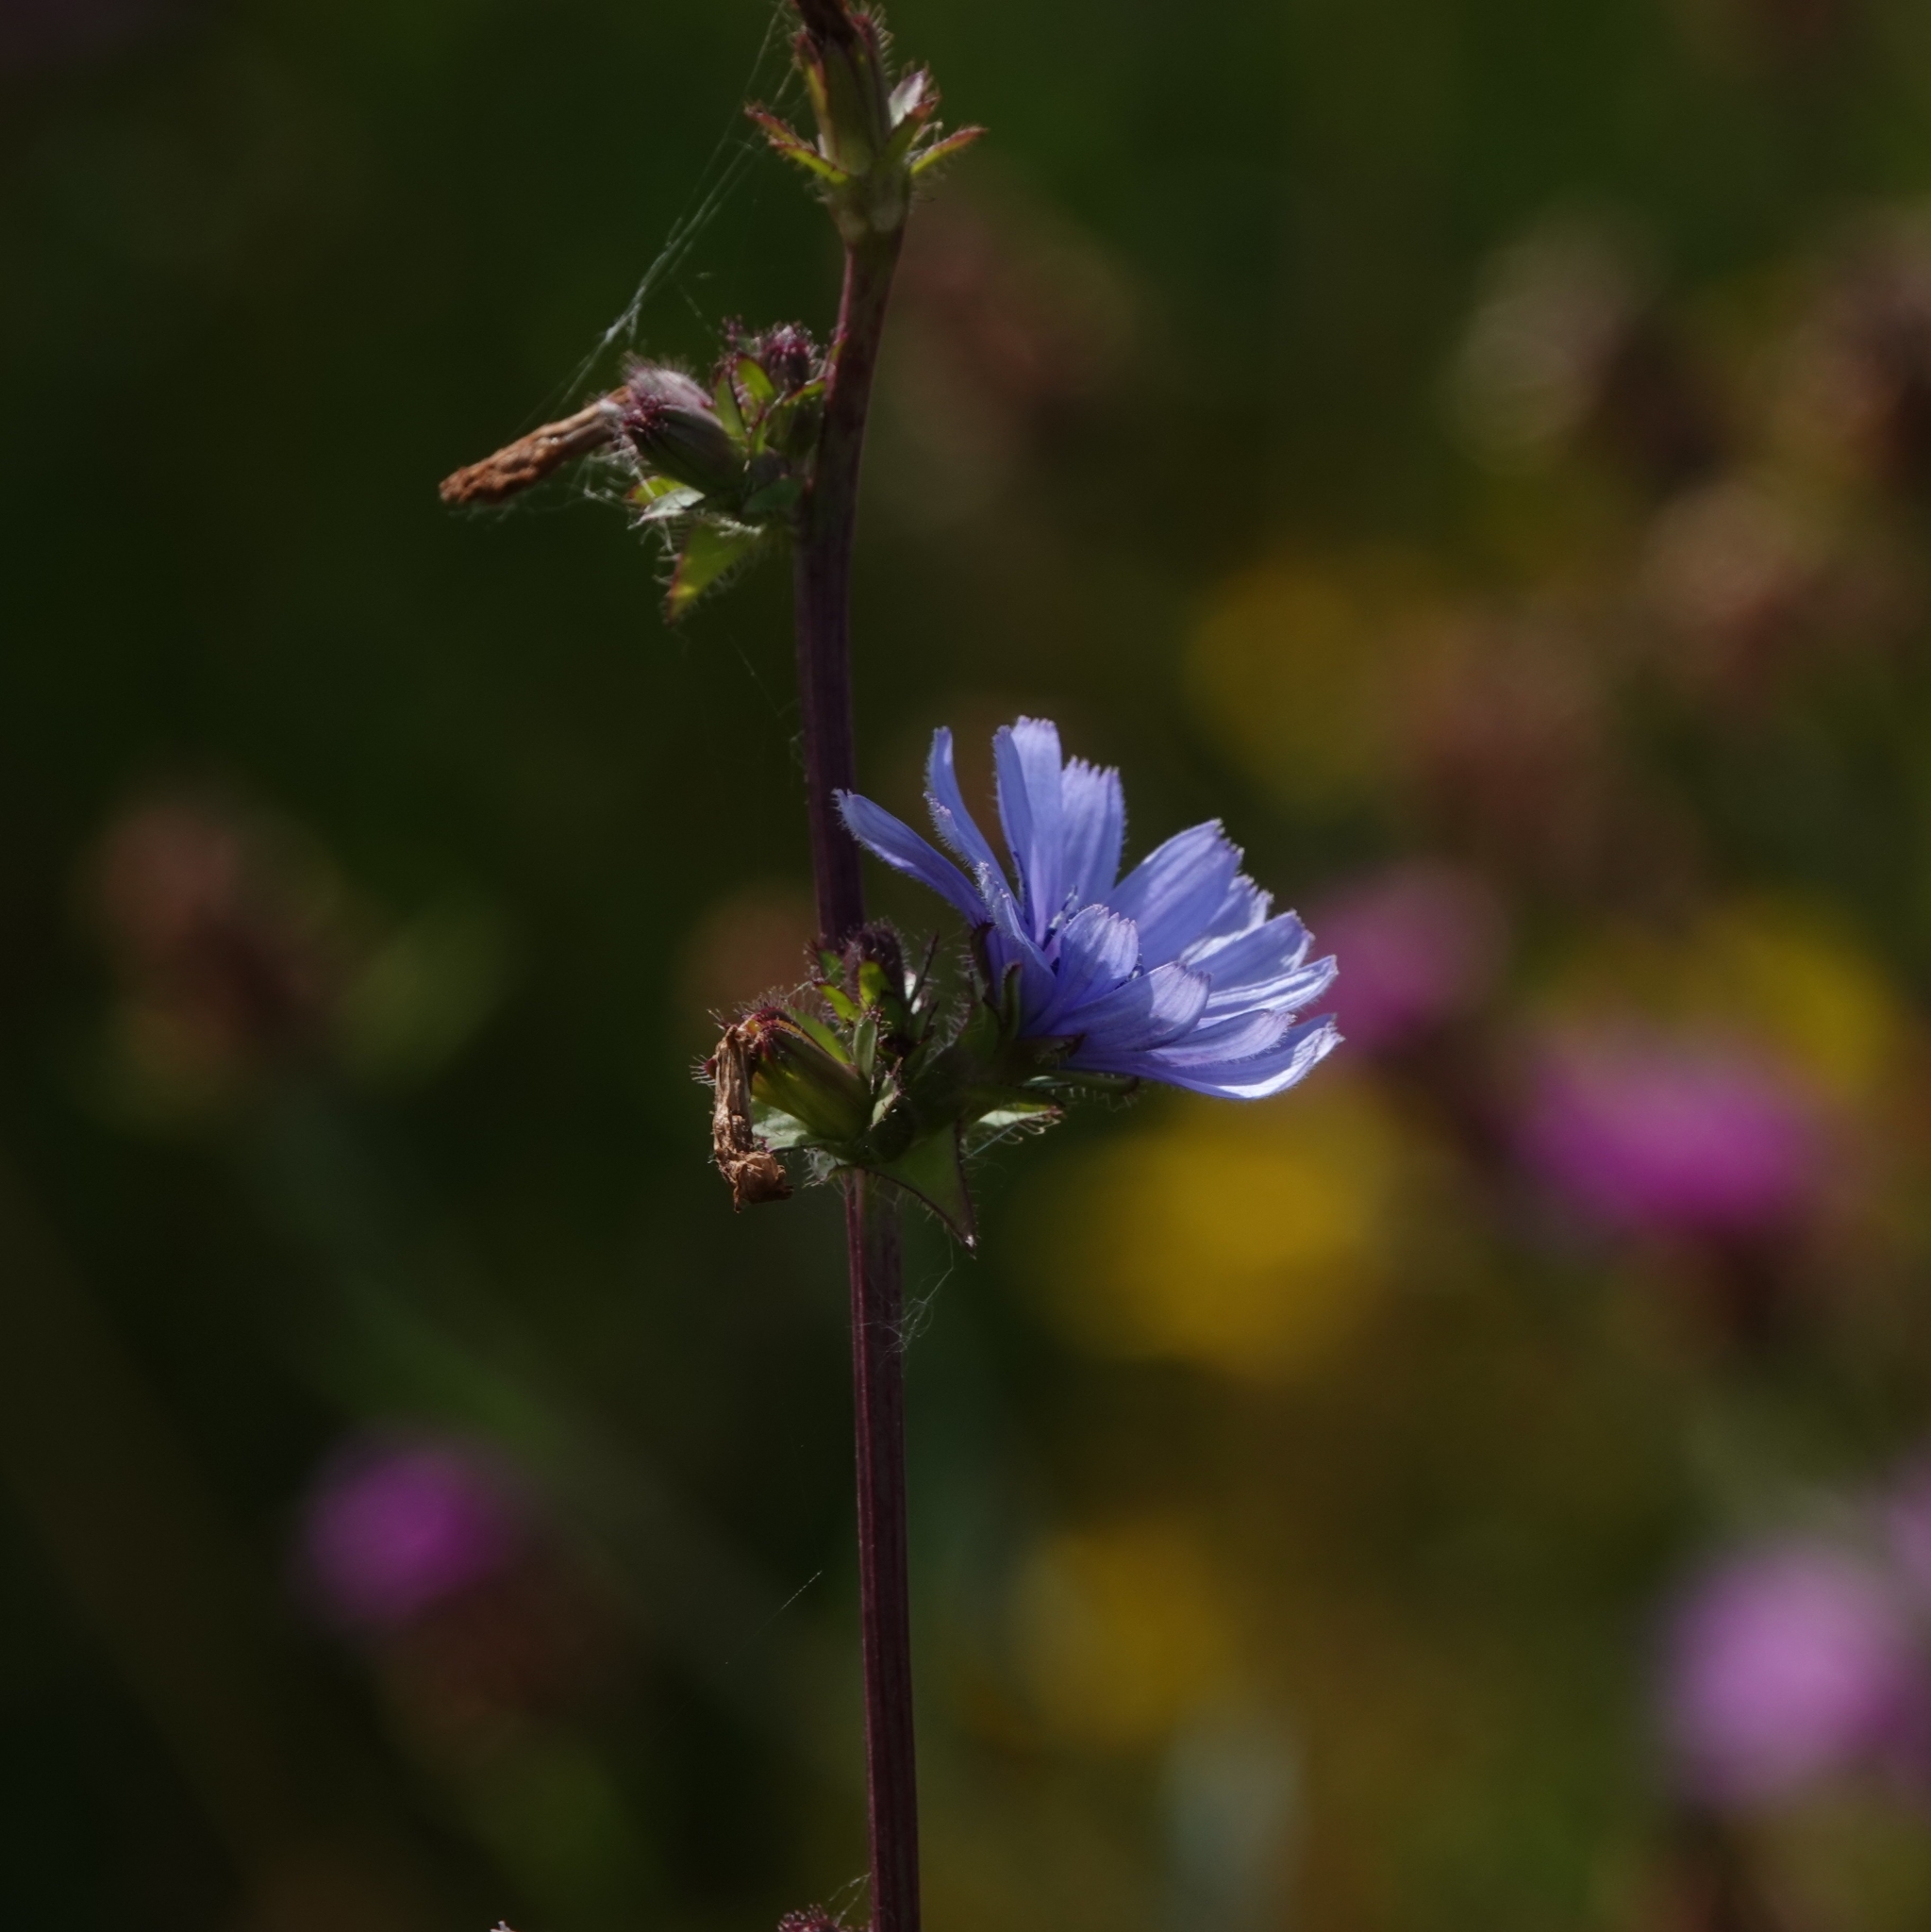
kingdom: Plantae
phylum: Tracheophyta
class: Magnoliopsida
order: Asterales
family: Asteraceae
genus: Cichorium
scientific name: Cichorium intybus
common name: Chicory
